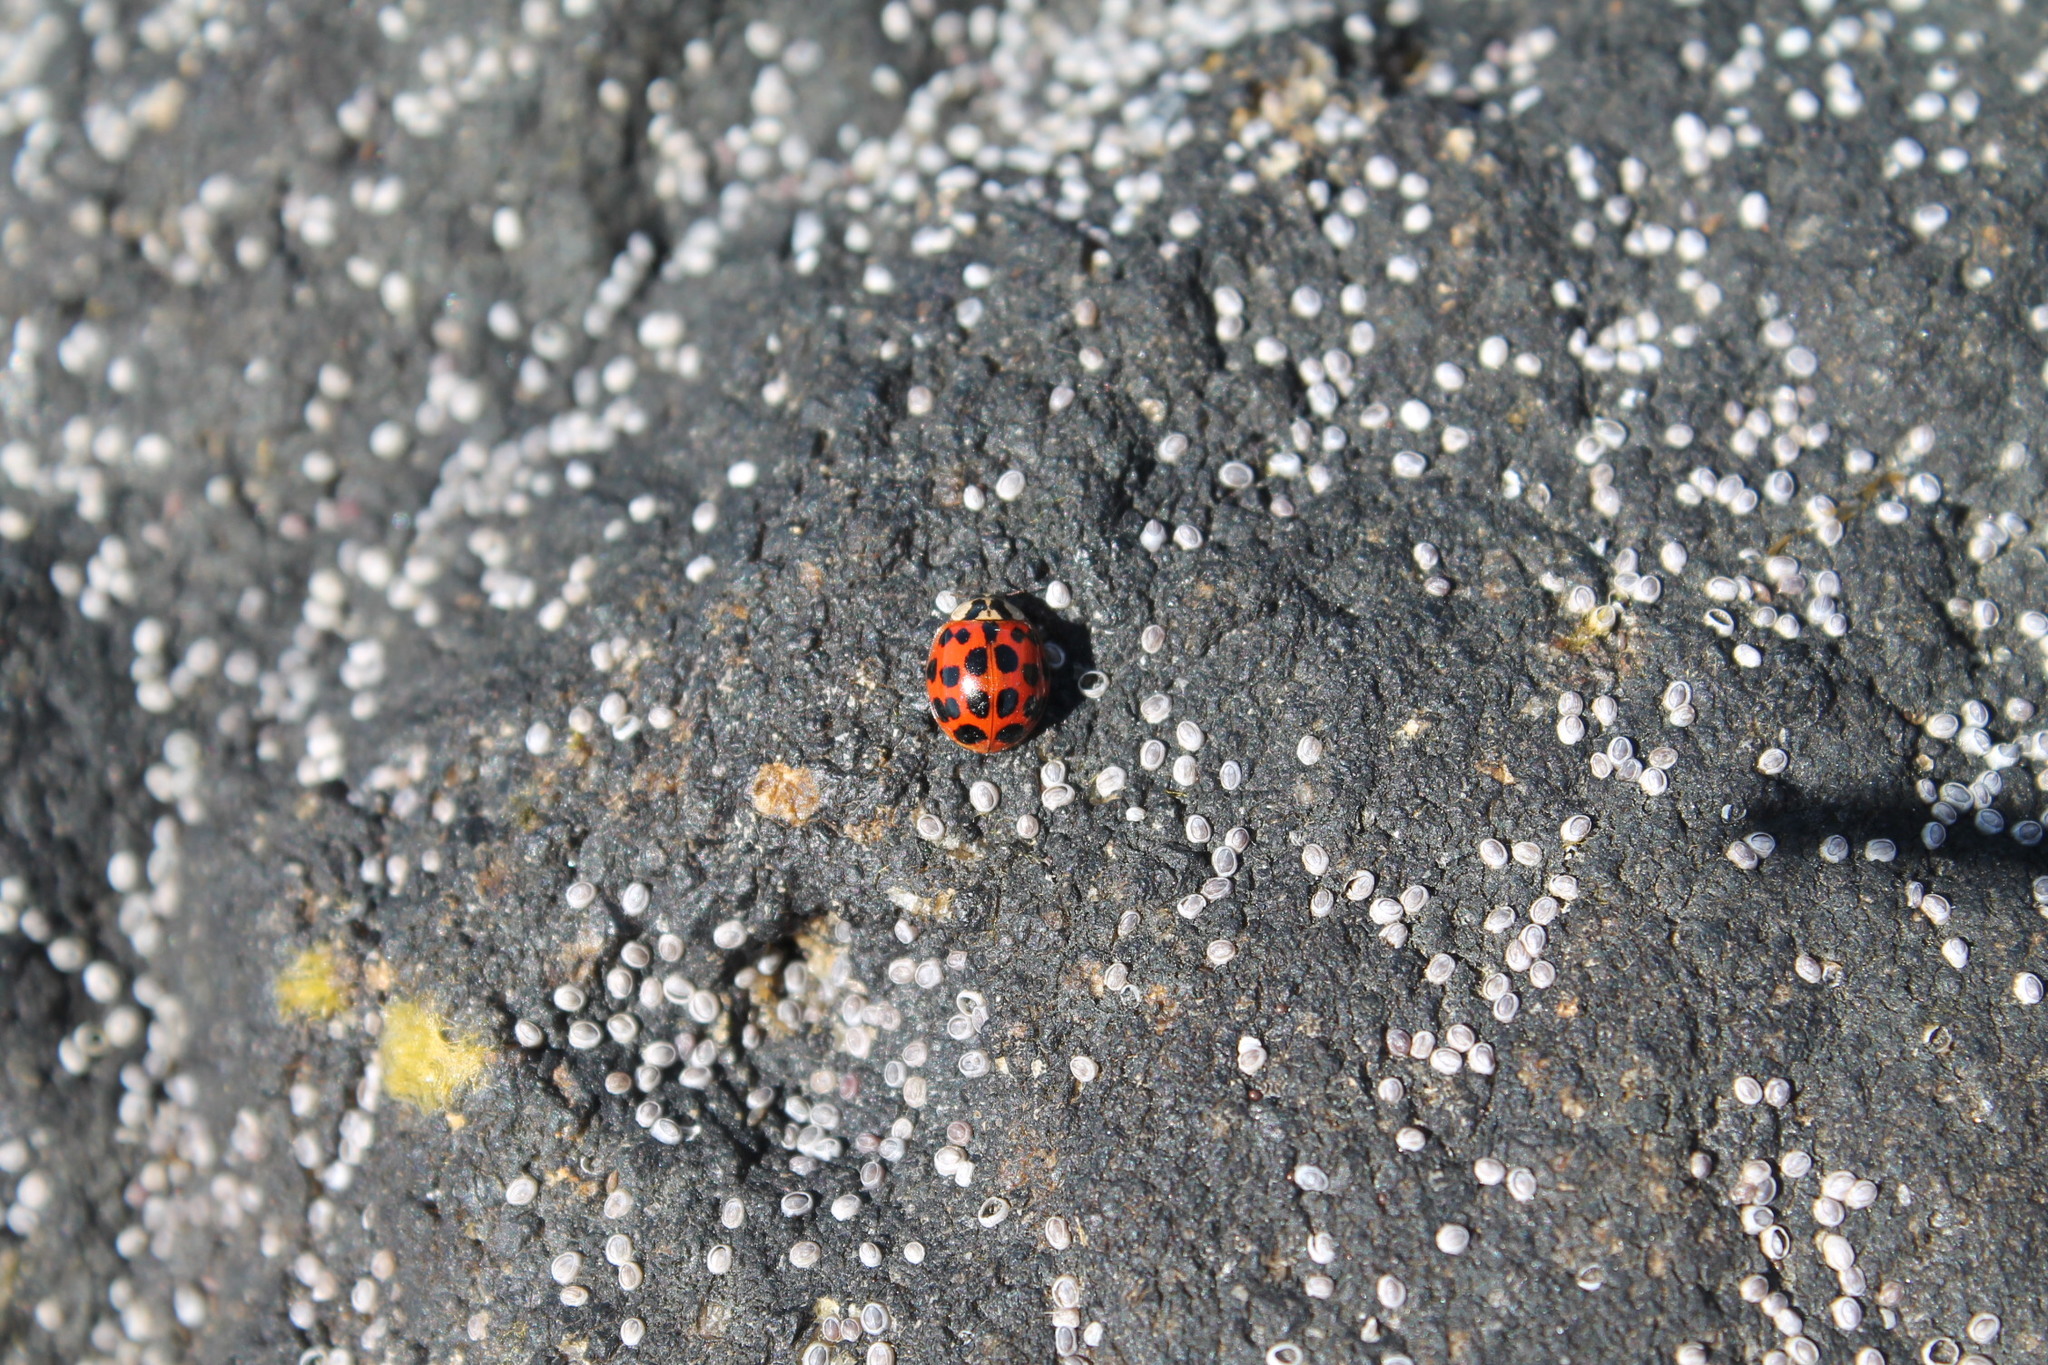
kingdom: Animalia
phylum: Arthropoda
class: Insecta
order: Coleoptera
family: Coccinellidae
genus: Harmonia
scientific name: Harmonia axyridis
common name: Harlequin ladybird
